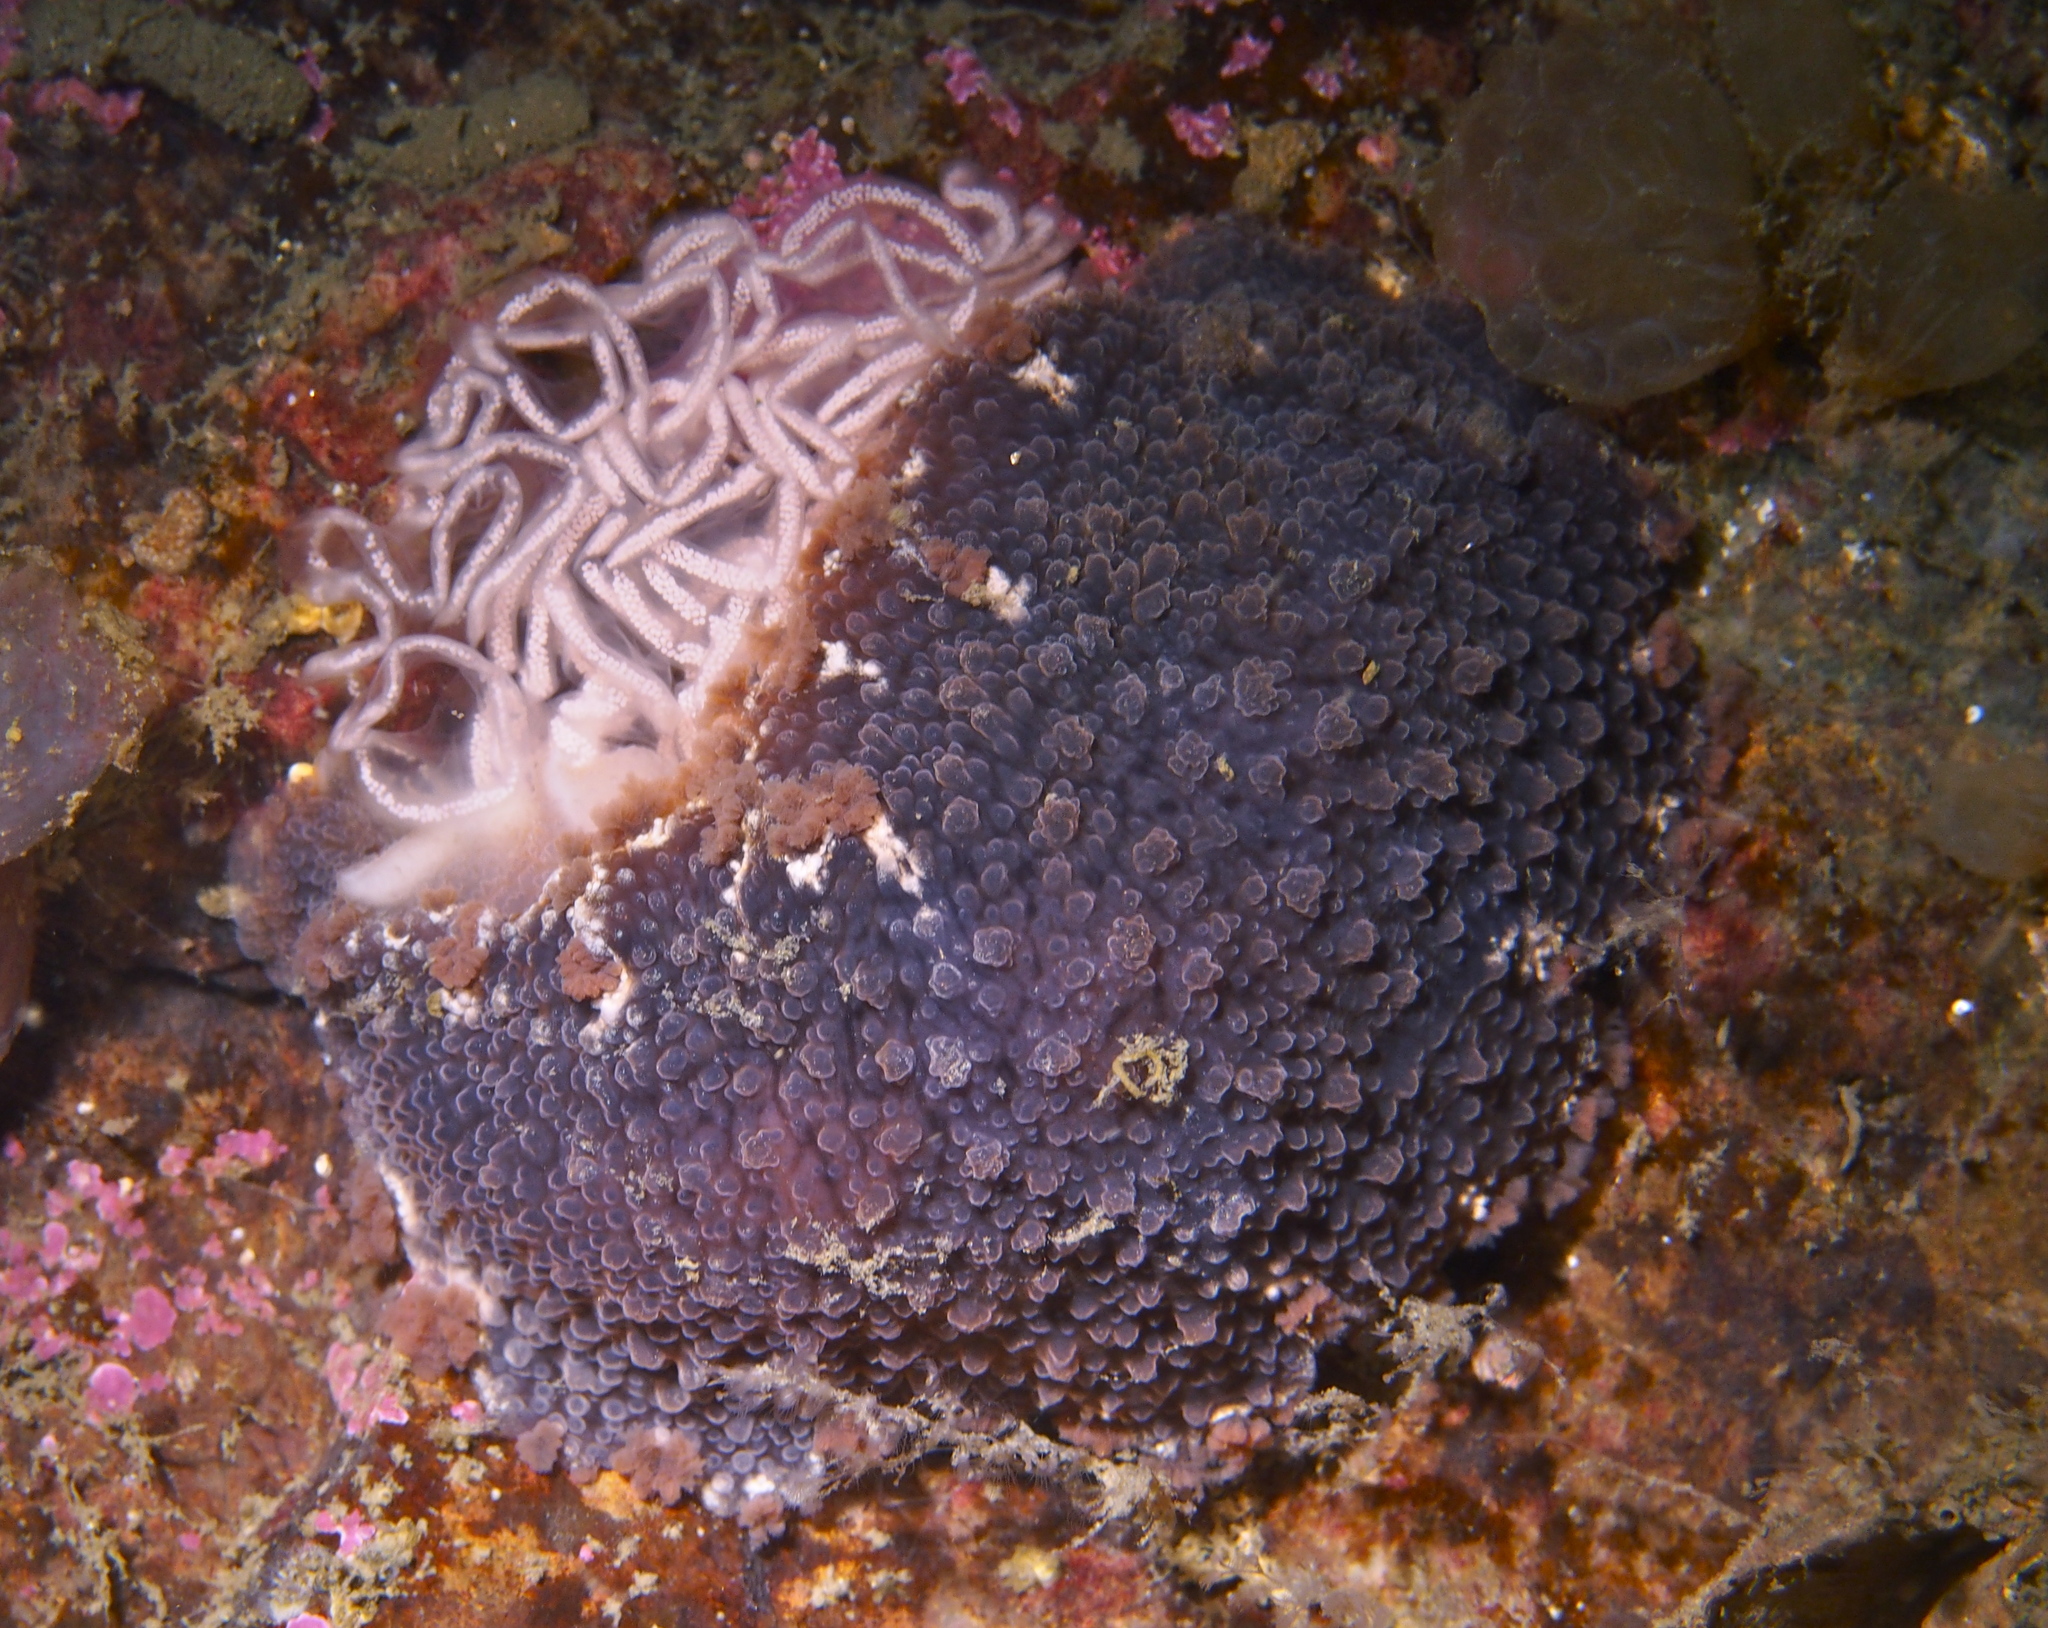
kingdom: Animalia
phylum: Mollusca
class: Gastropoda
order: Nudibranchia
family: Tritoniidae
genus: Tritonia
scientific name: Tritonia hombergii
